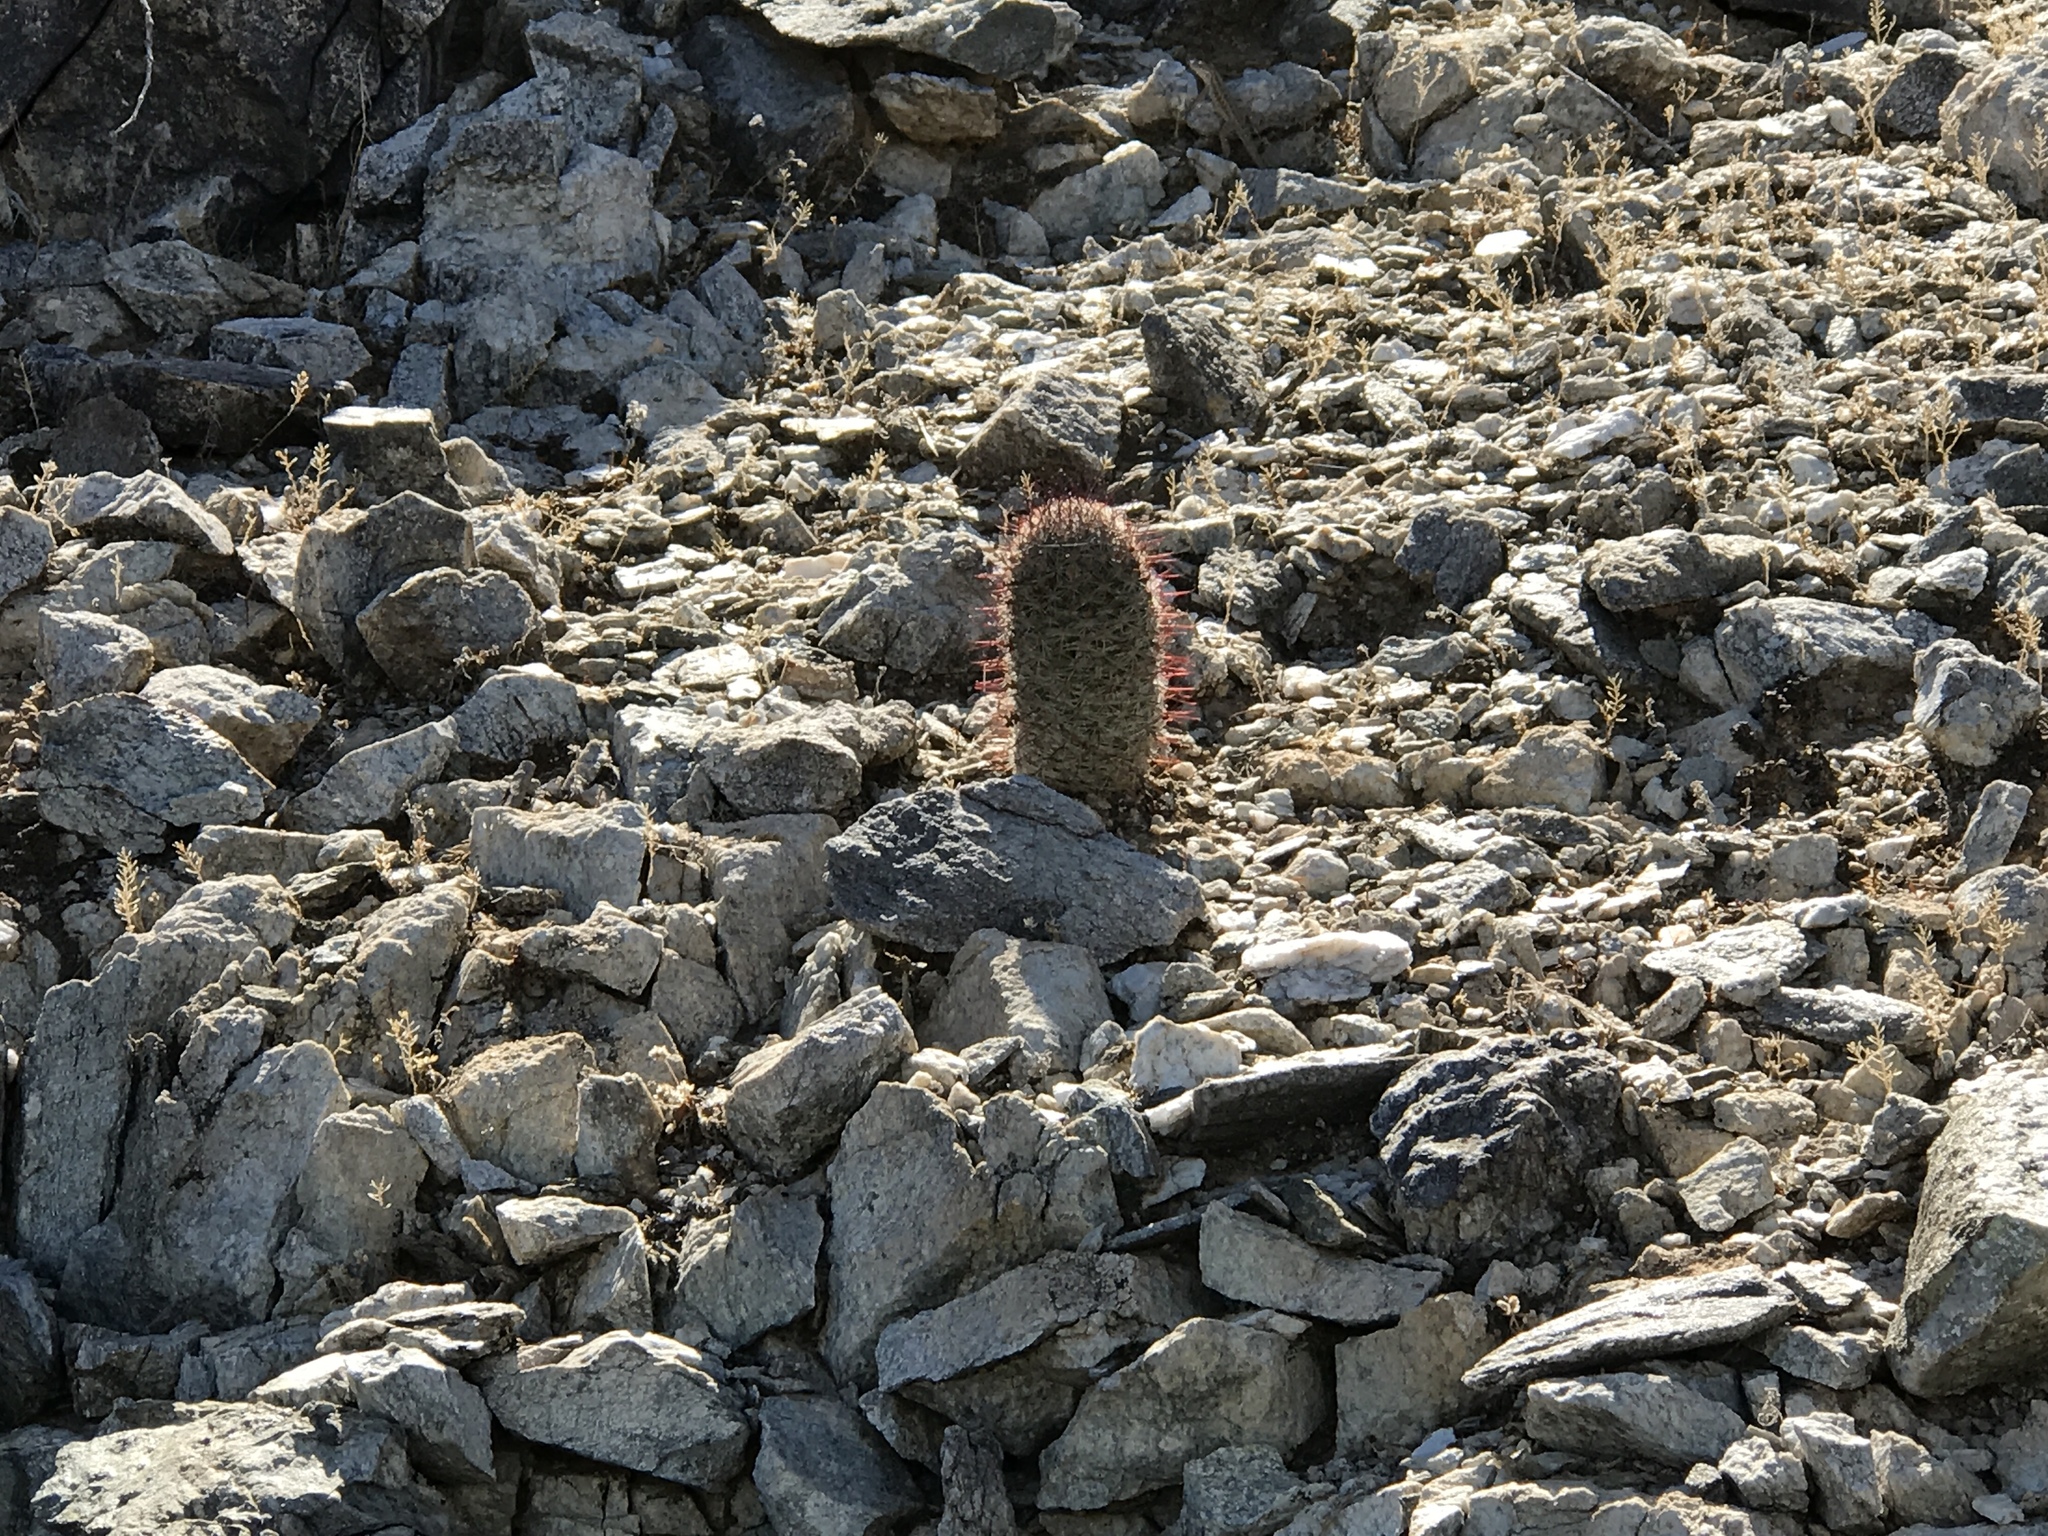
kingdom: Plantae
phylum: Tracheophyta
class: Magnoliopsida
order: Caryophyllales
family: Cactaceae
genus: Cochemiea
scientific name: Cochemiea grahamii
